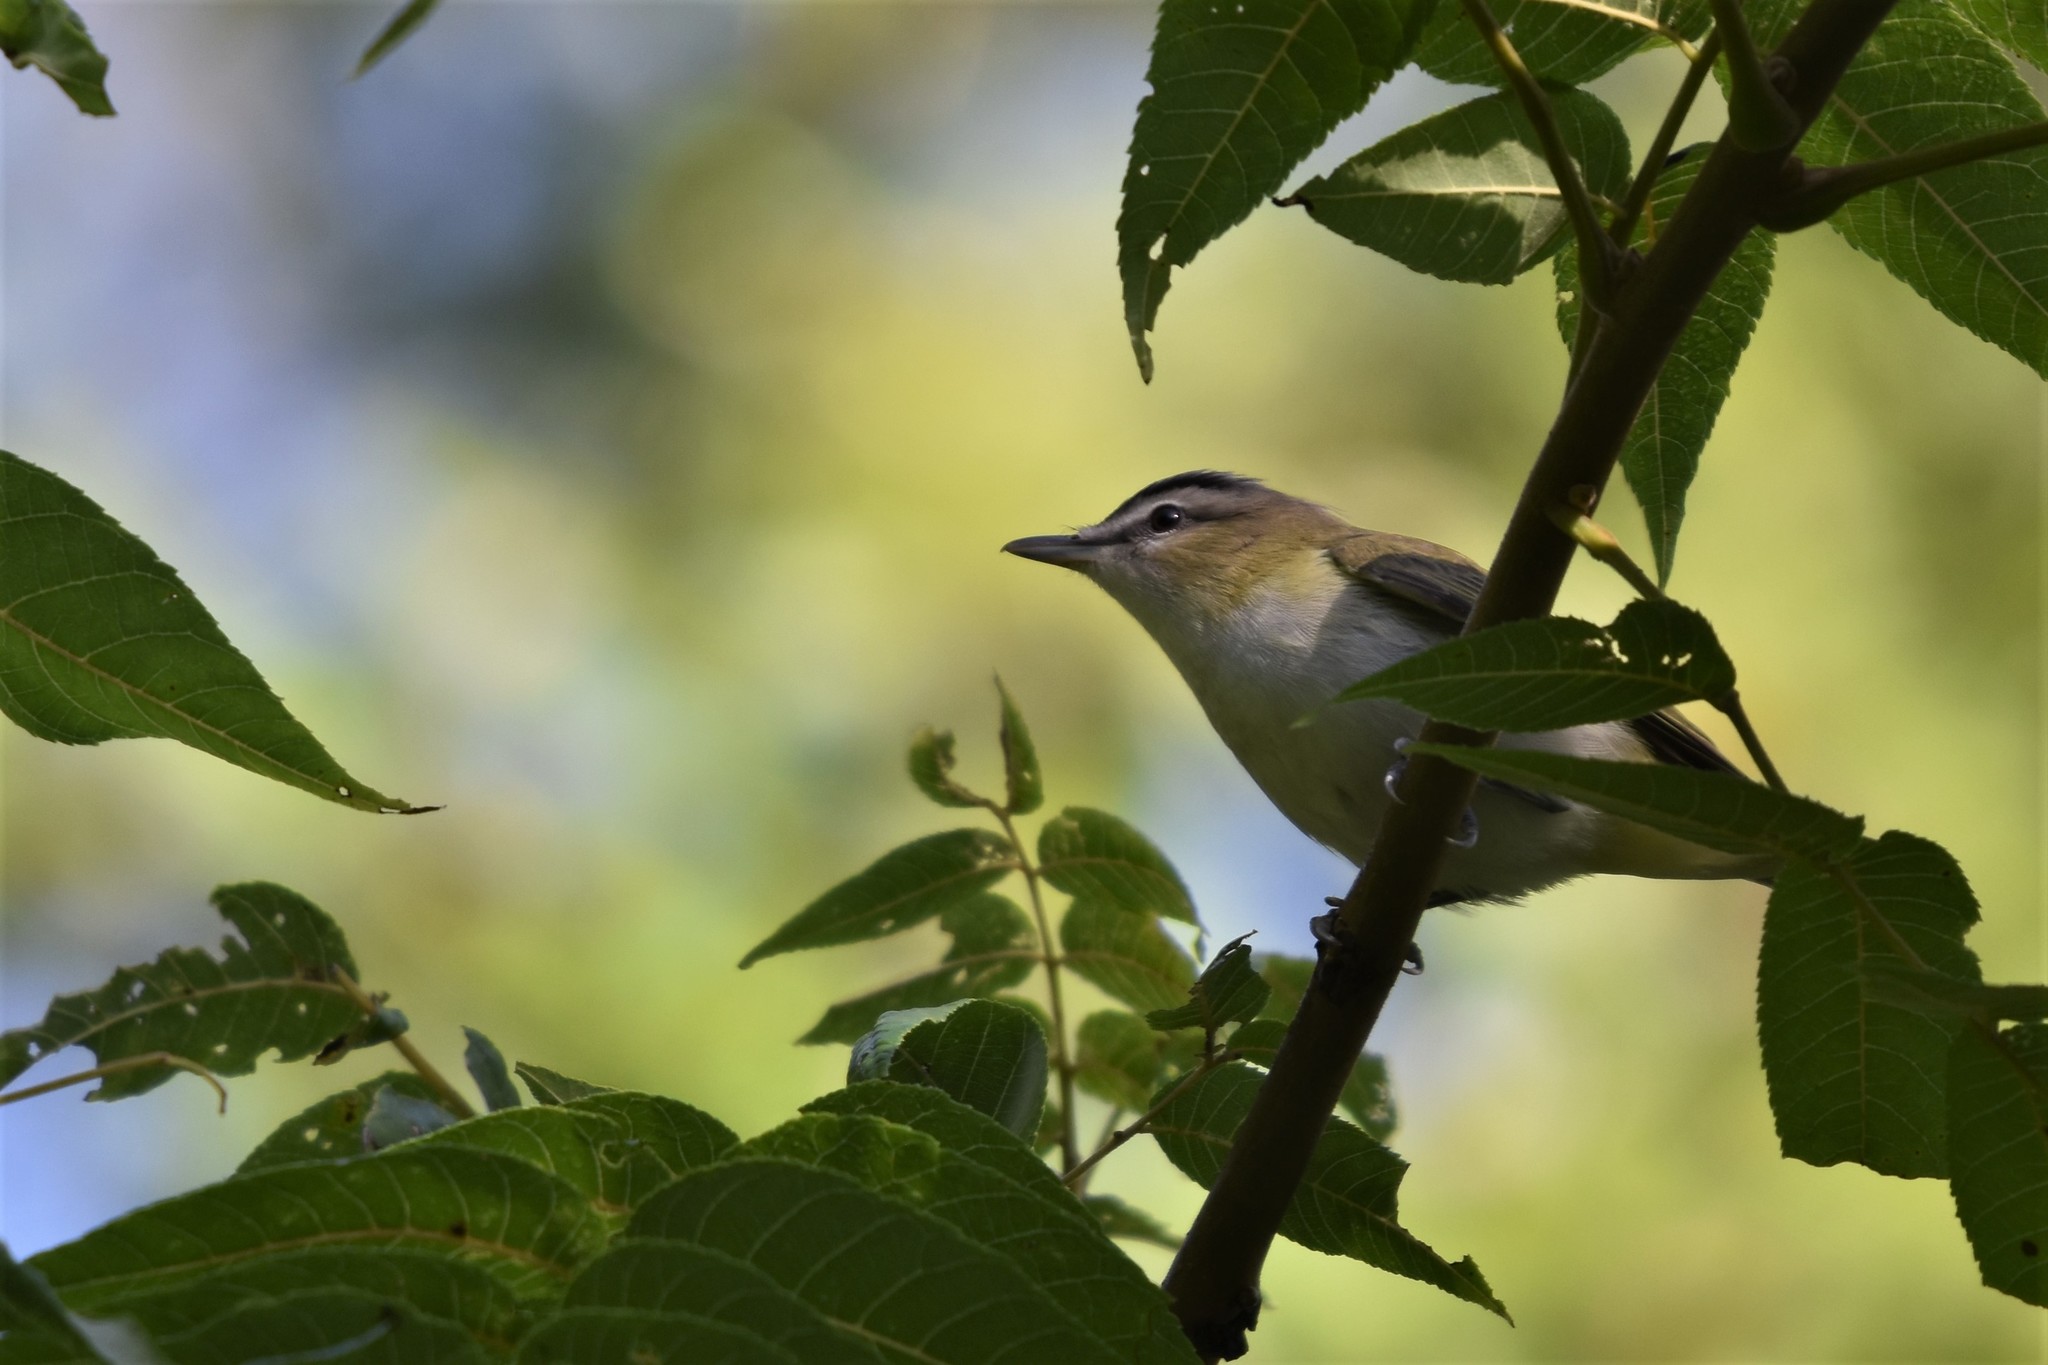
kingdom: Animalia
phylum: Chordata
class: Aves
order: Passeriformes
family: Vireonidae
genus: Vireo
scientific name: Vireo olivaceus
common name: Red-eyed vireo
